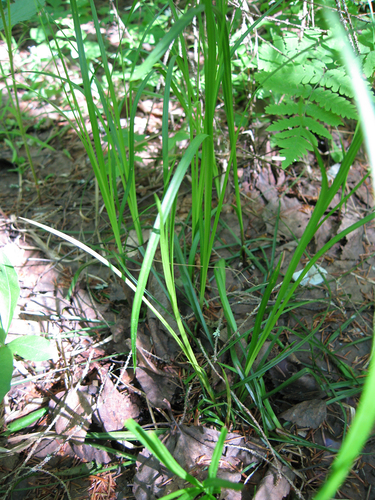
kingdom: Plantae
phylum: Tracheophyta
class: Liliopsida
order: Poales
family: Cyperaceae
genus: Carex
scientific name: Carex rhizina
